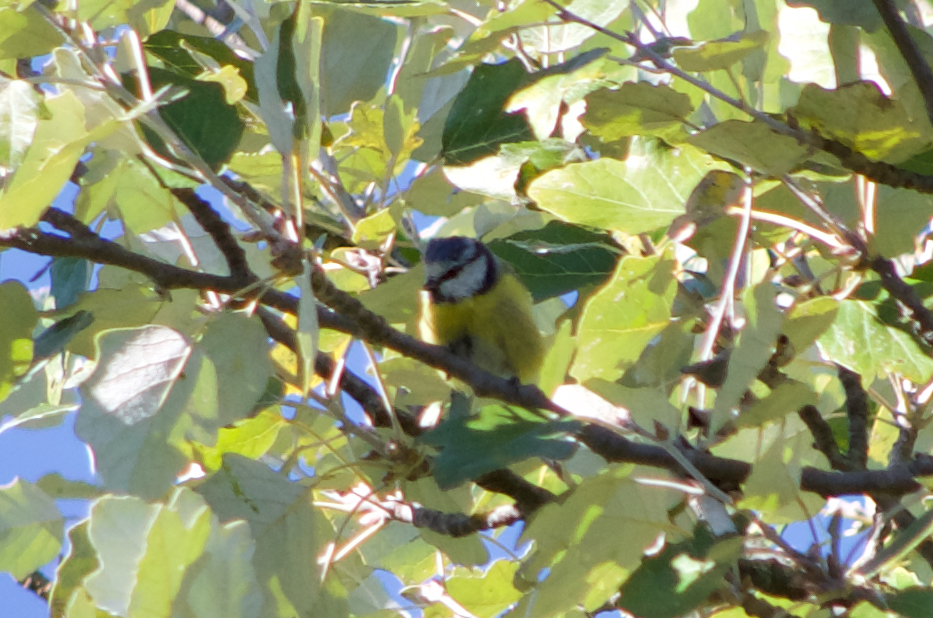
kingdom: Animalia
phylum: Chordata
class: Aves
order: Passeriformes
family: Paridae
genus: Cyanistes
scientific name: Cyanistes caeruleus
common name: Eurasian blue tit
